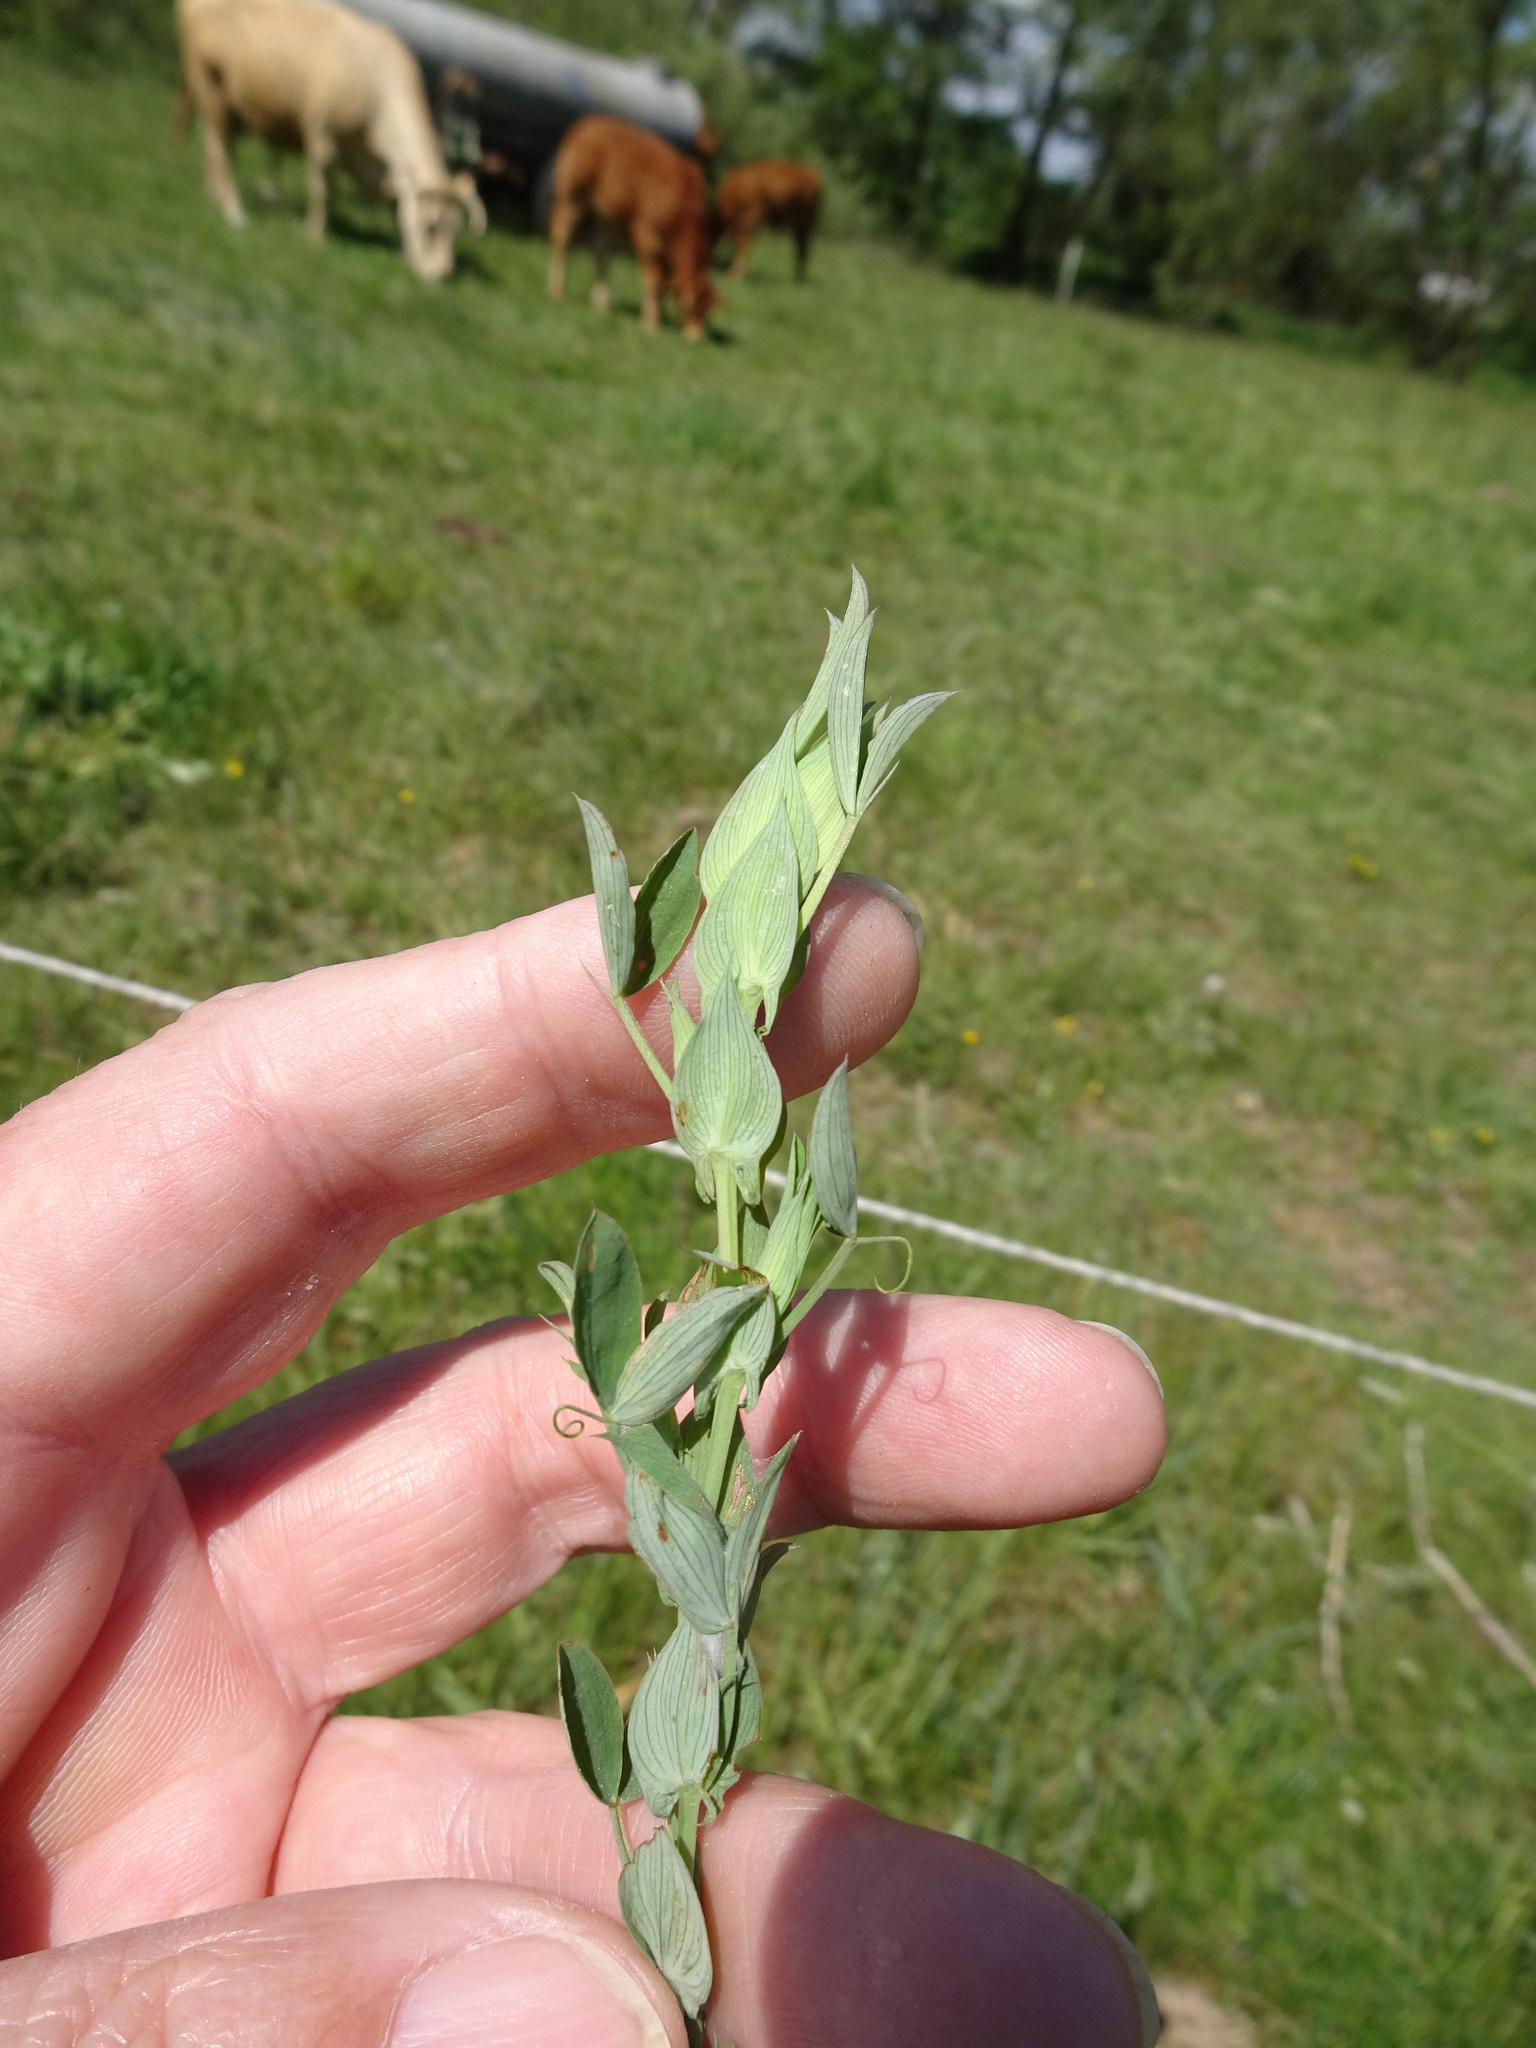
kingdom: Plantae
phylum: Tracheophyta
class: Magnoliopsida
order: Fabales
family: Fabaceae
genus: Lathyrus
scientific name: Lathyrus pratensis
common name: Meadow vetchling
